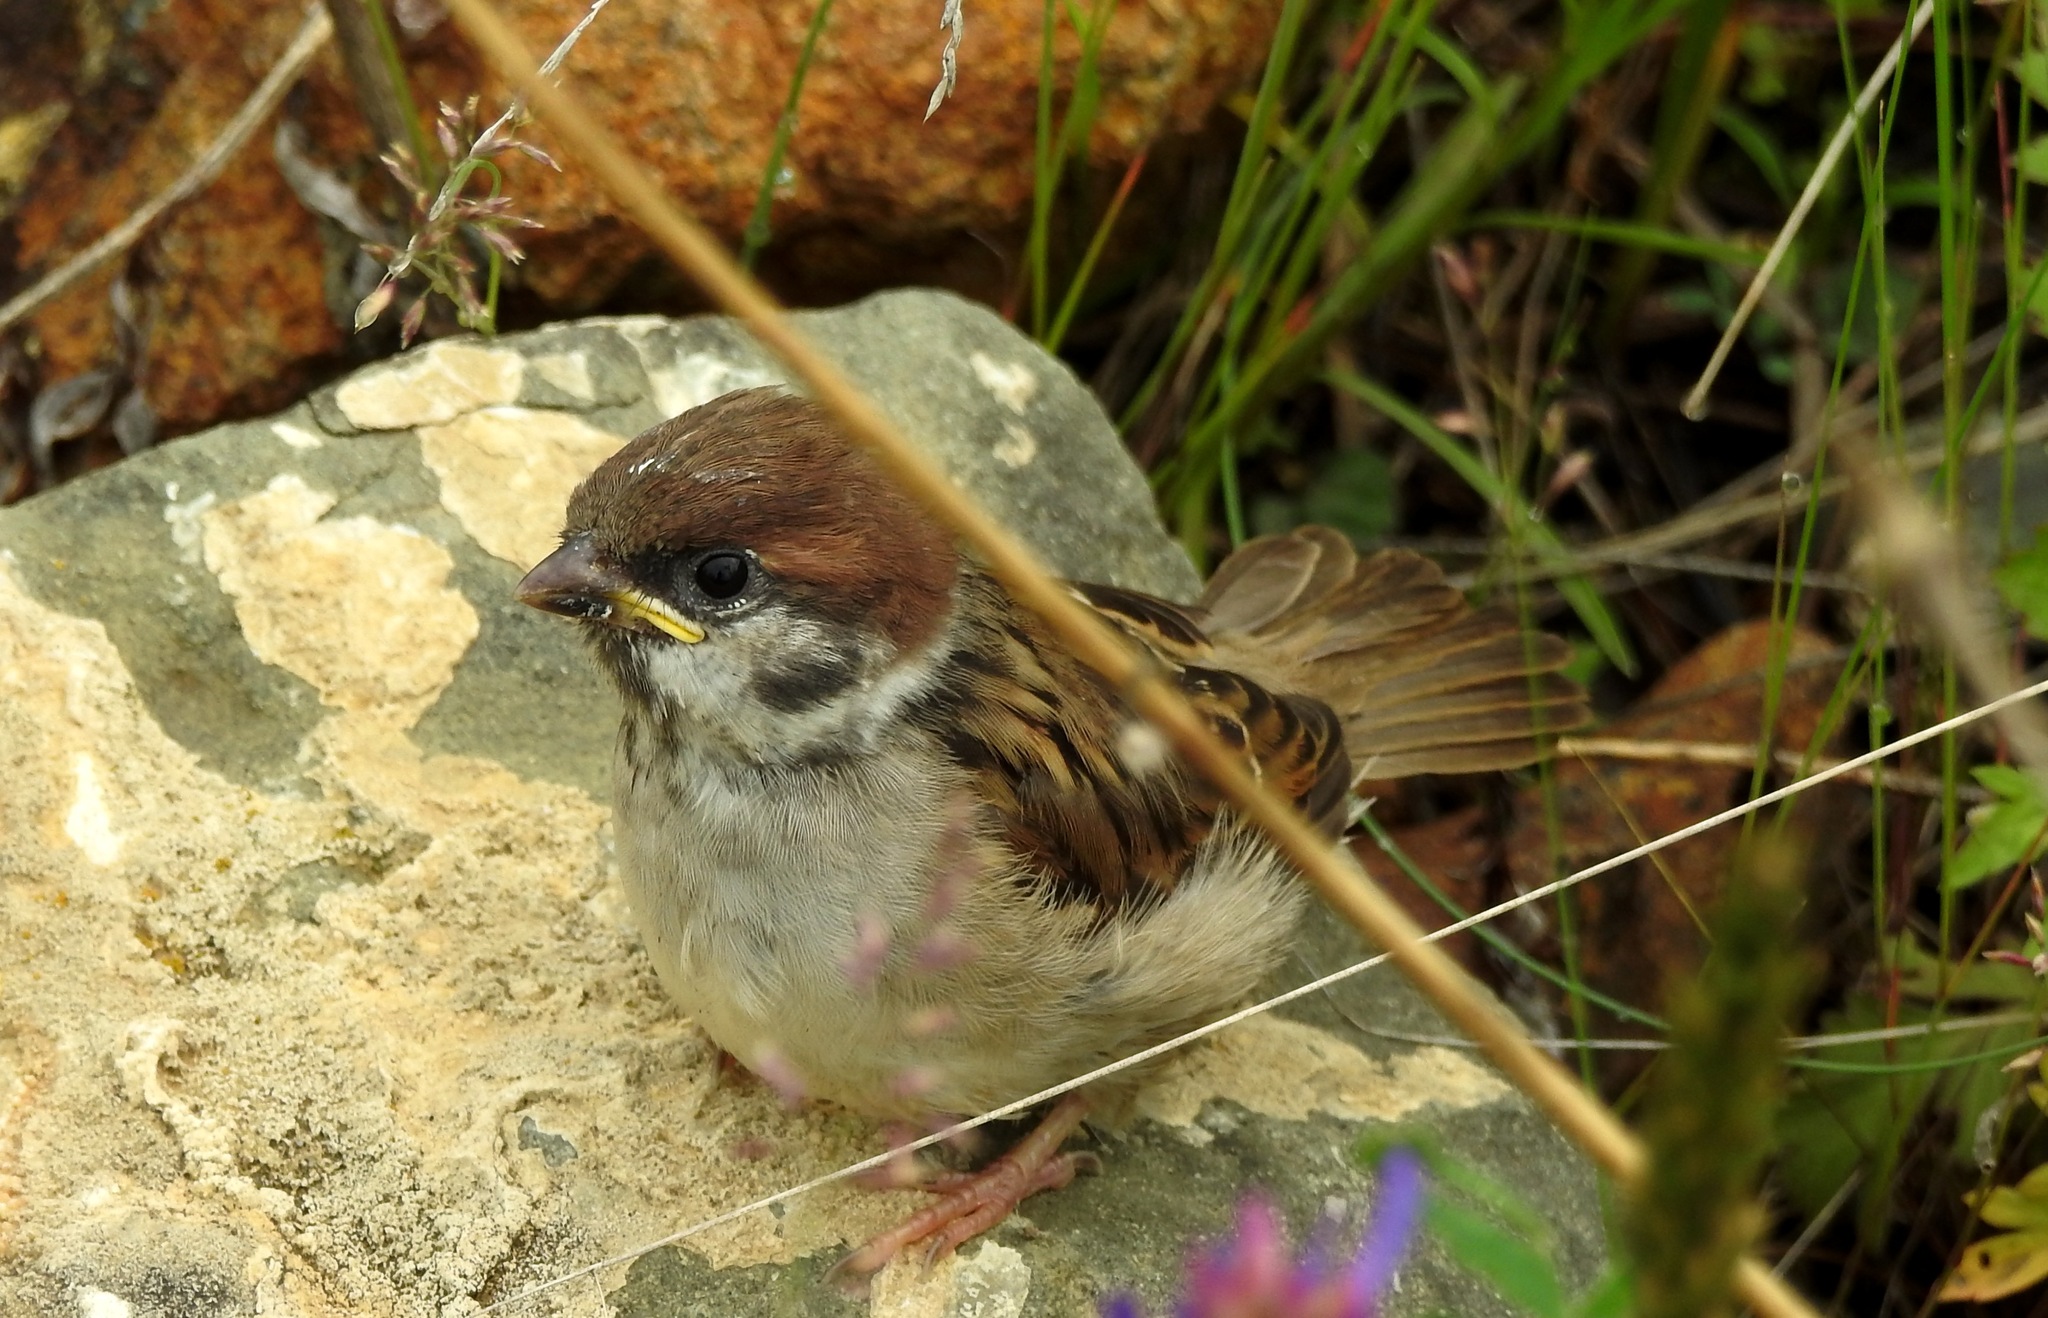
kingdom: Animalia
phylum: Chordata
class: Aves
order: Passeriformes
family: Passeridae
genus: Passer
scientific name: Passer montanus
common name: Eurasian tree sparrow
